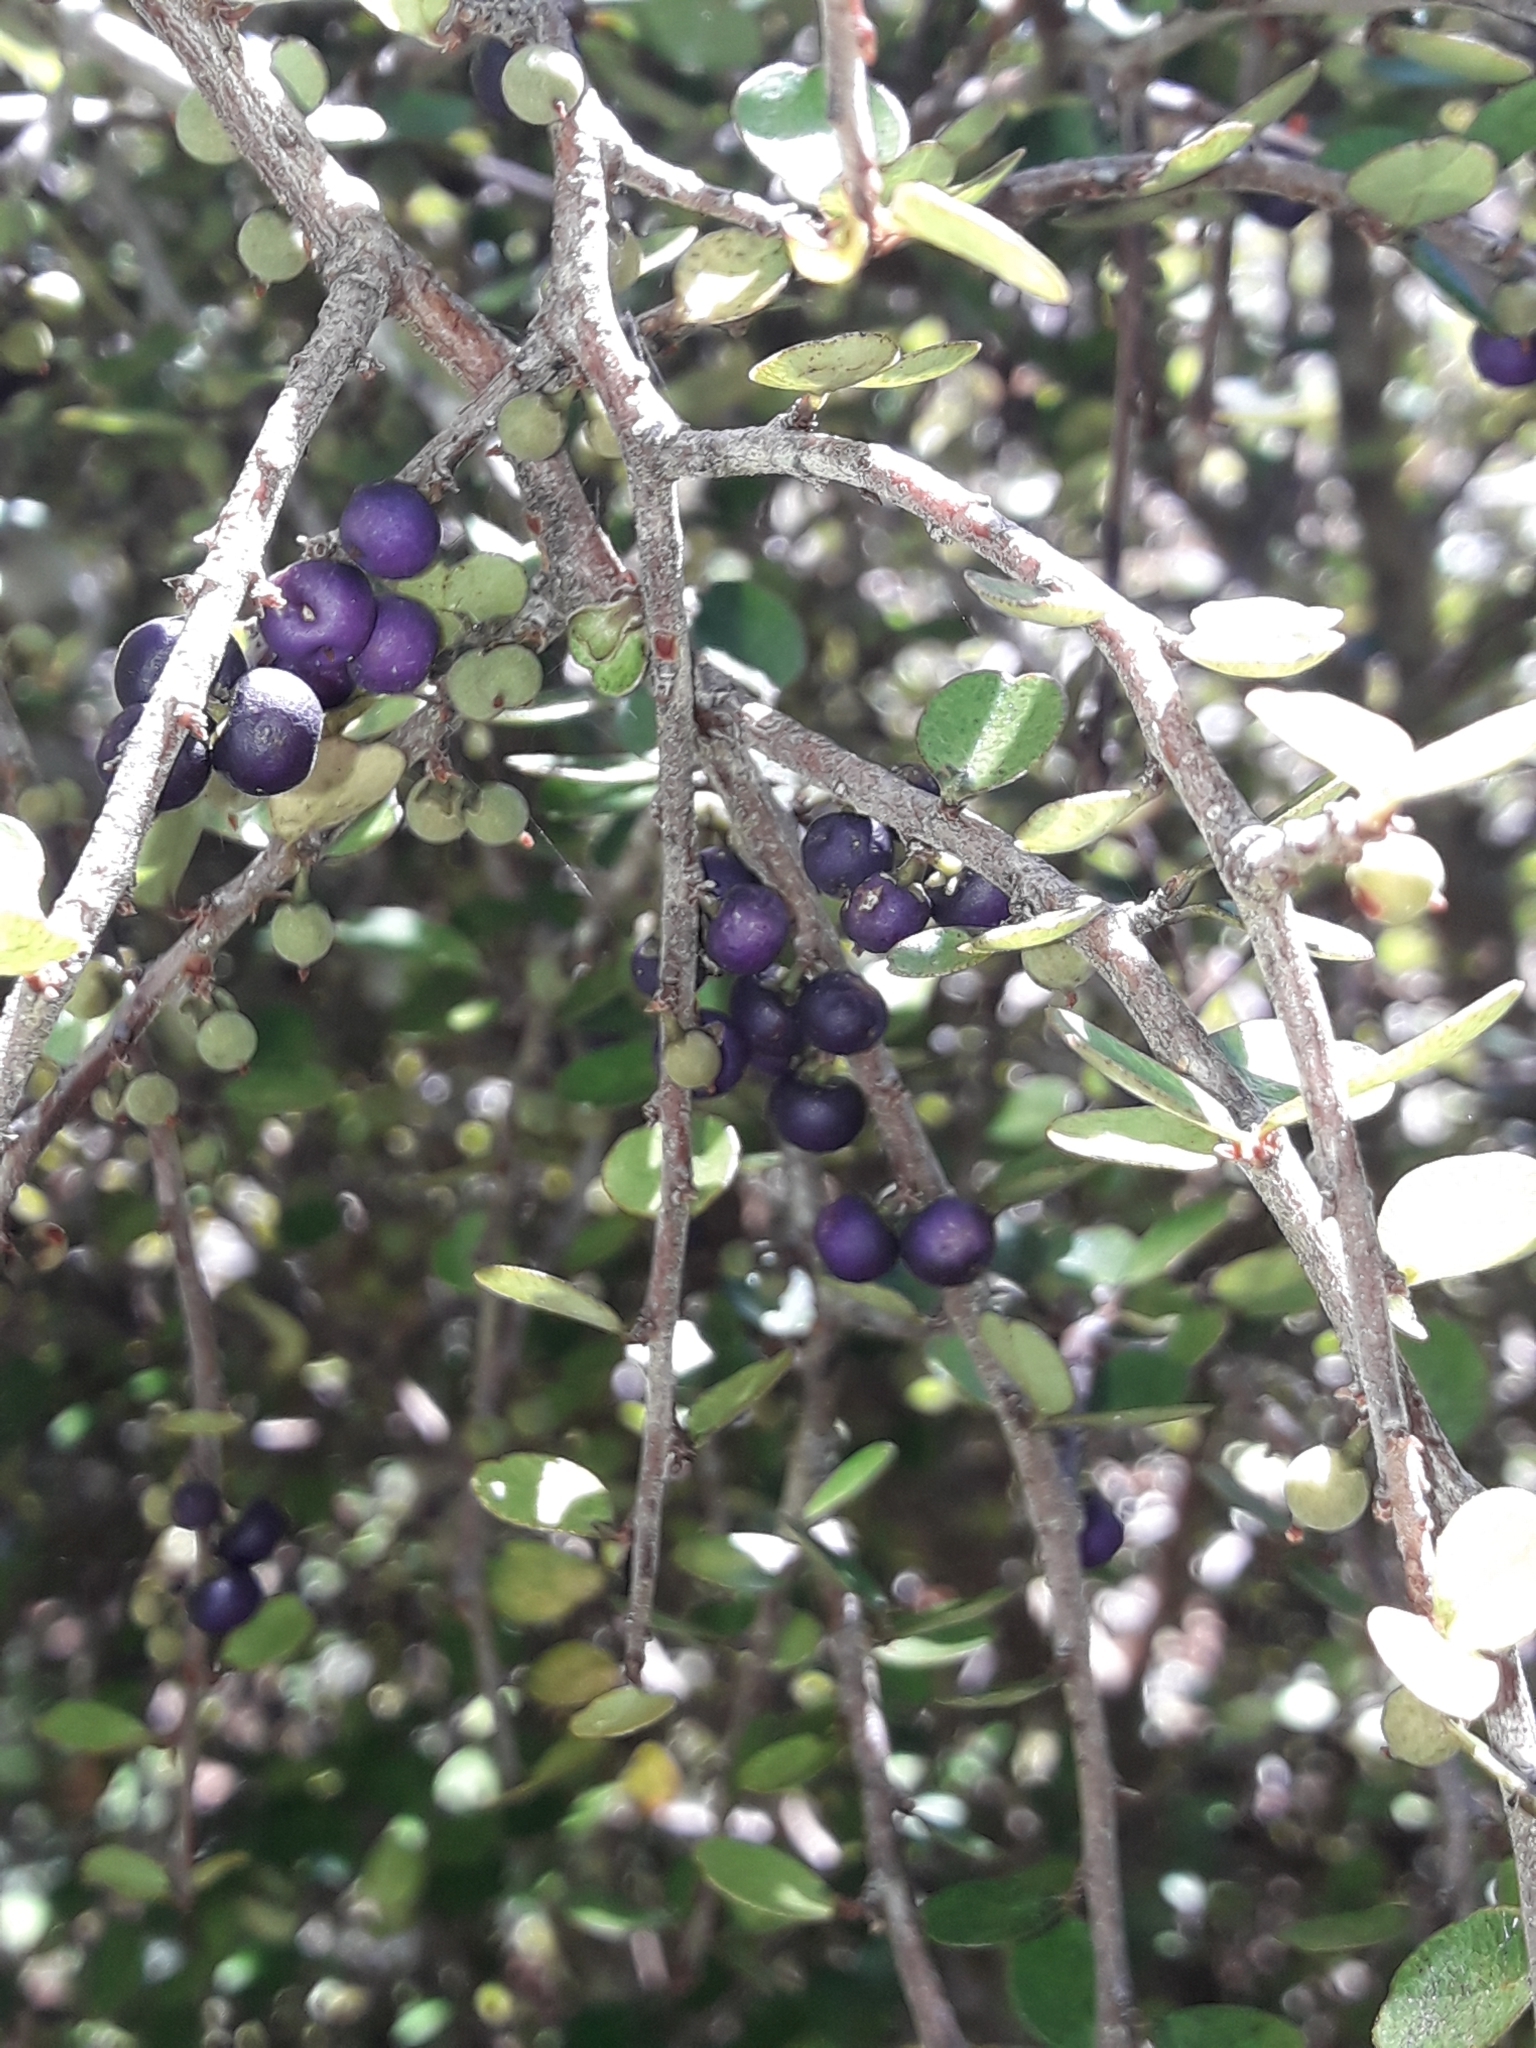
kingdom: Plantae
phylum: Tracheophyta
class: Magnoliopsida
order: Ericales
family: Primulaceae
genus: Myrsine
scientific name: Myrsine divaricata
